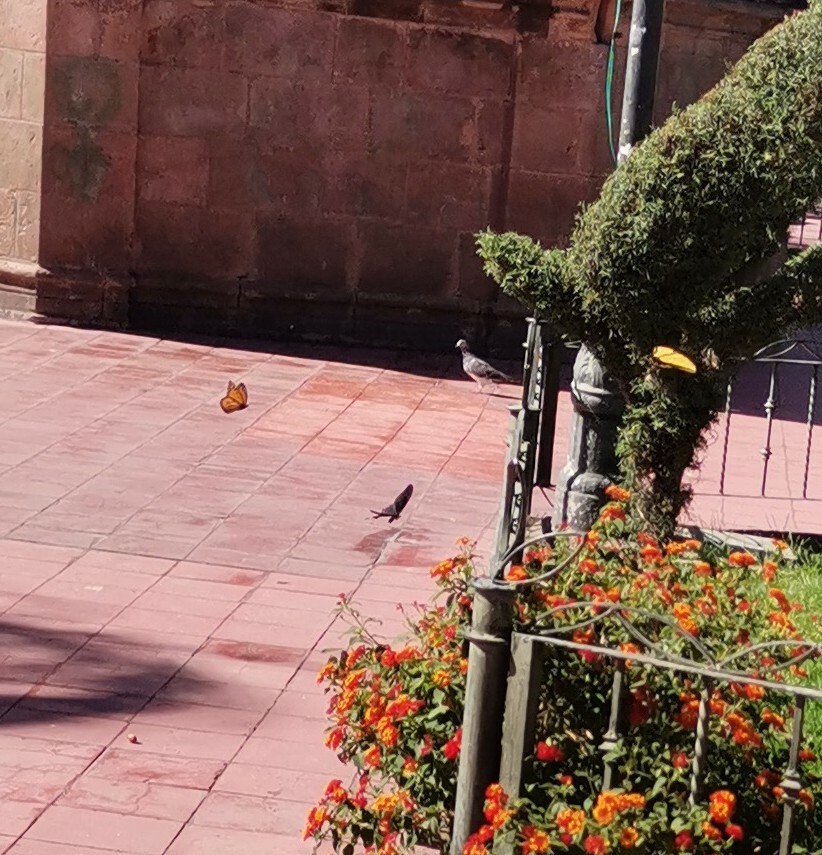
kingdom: Animalia
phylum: Arthropoda
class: Insecta
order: Lepidoptera
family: Nymphalidae
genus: Danaus
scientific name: Danaus plexippus
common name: Monarch
